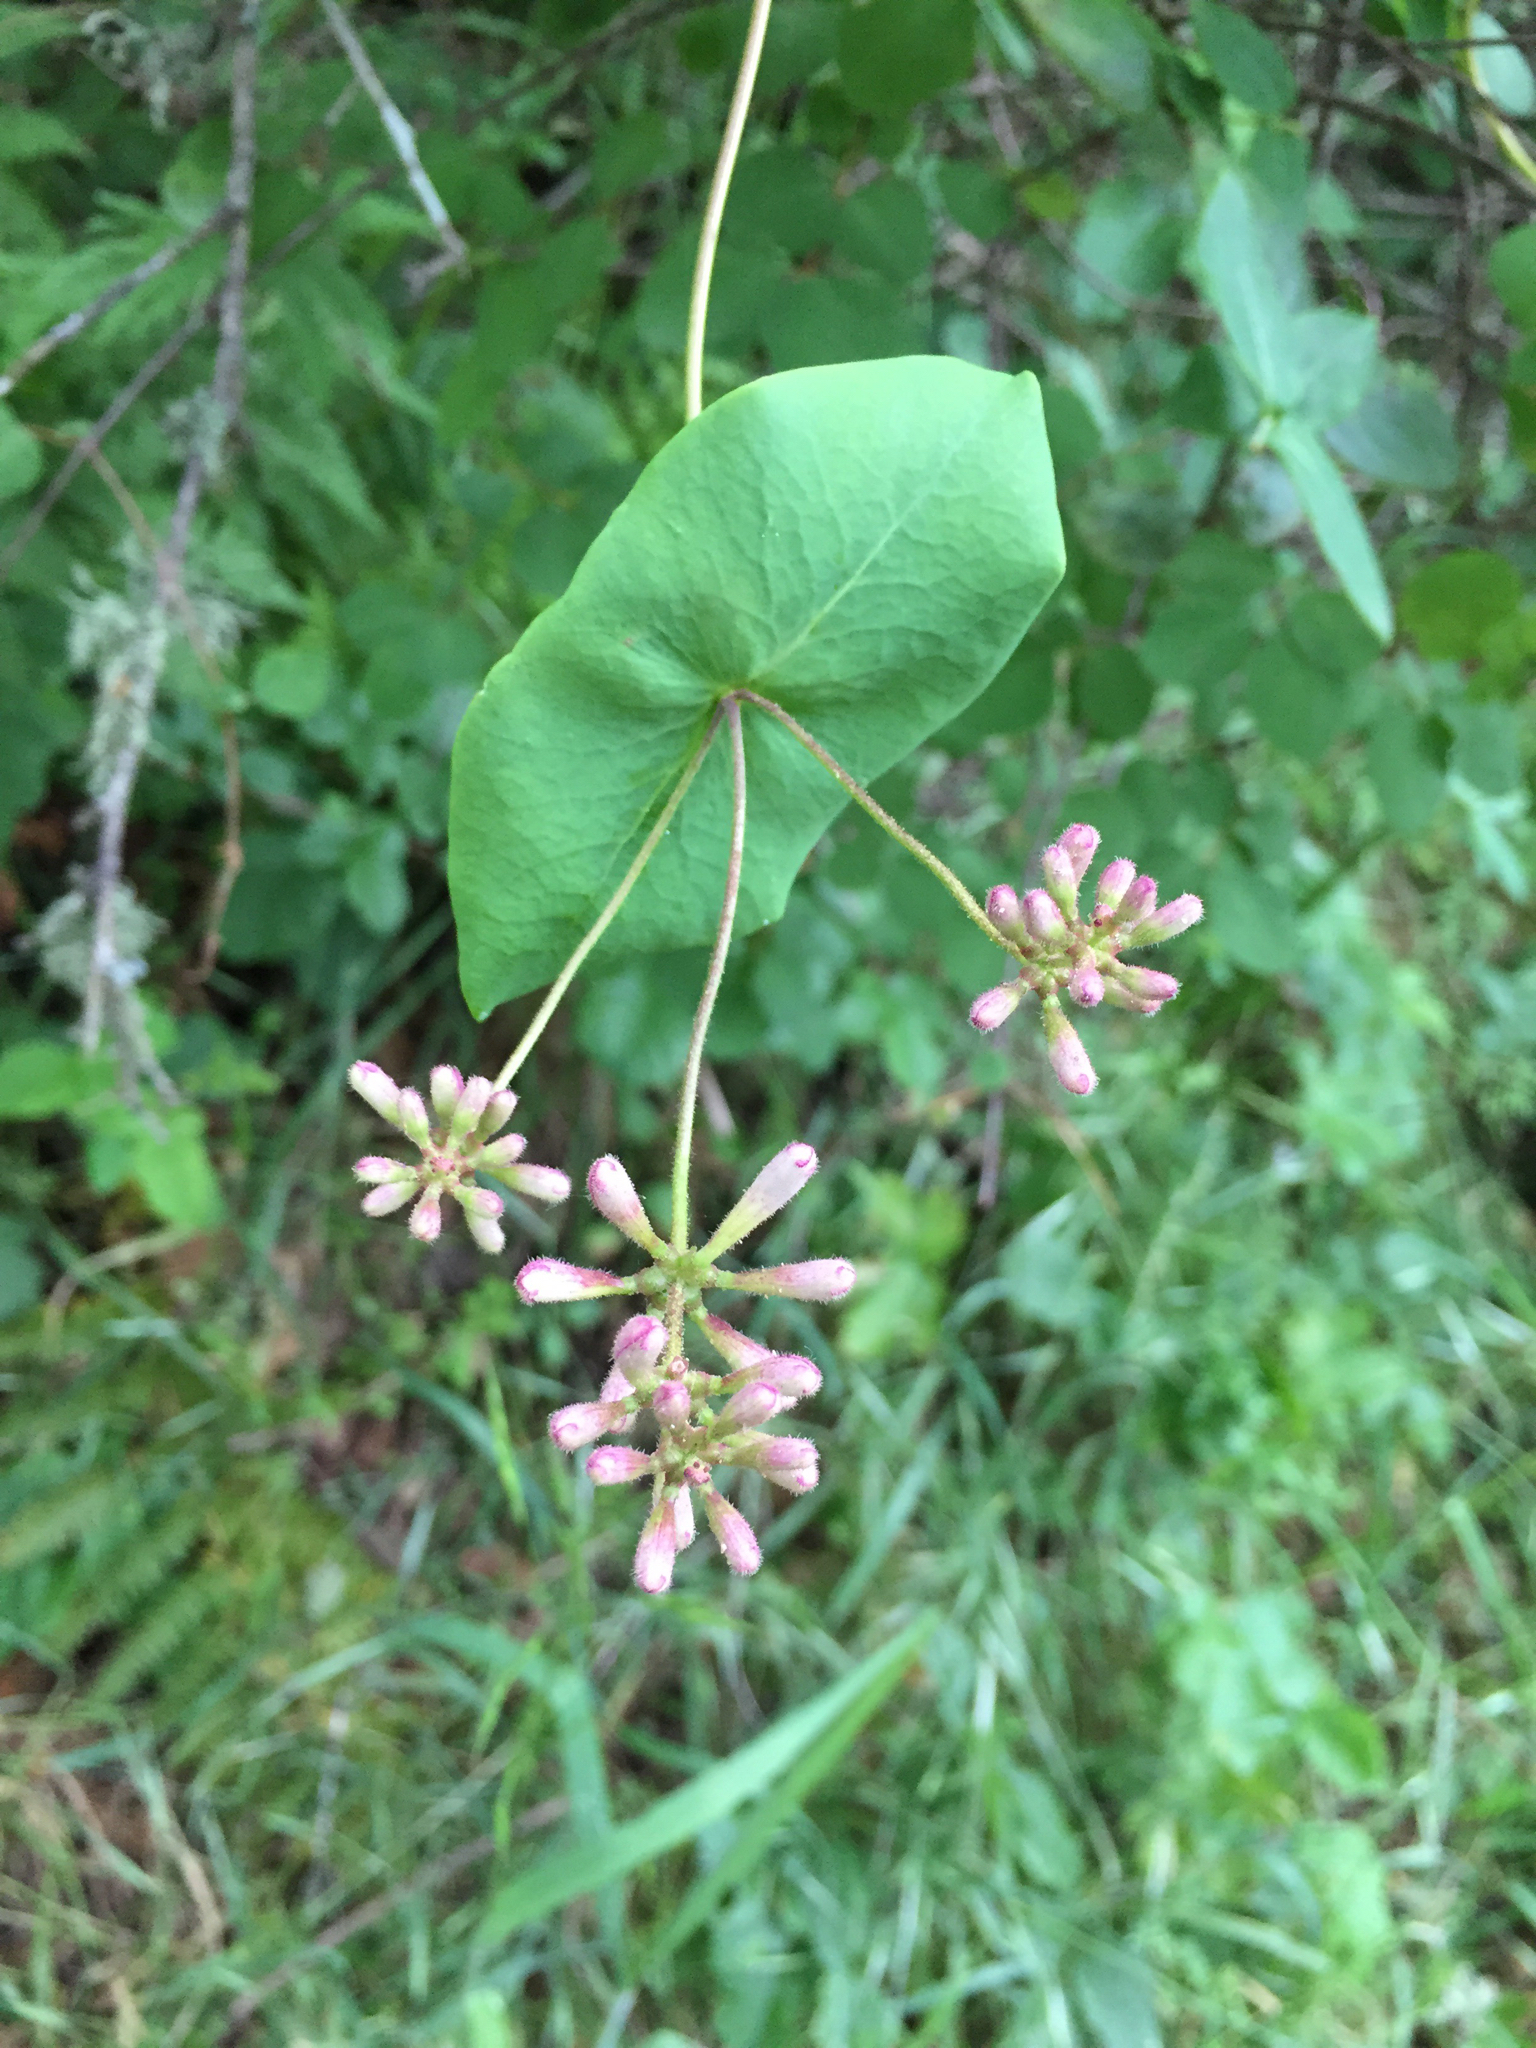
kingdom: Plantae
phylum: Tracheophyta
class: Magnoliopsida
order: Dipsacales
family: Caprifoliaceae
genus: Lonicera
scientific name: Lonicera hispidula
